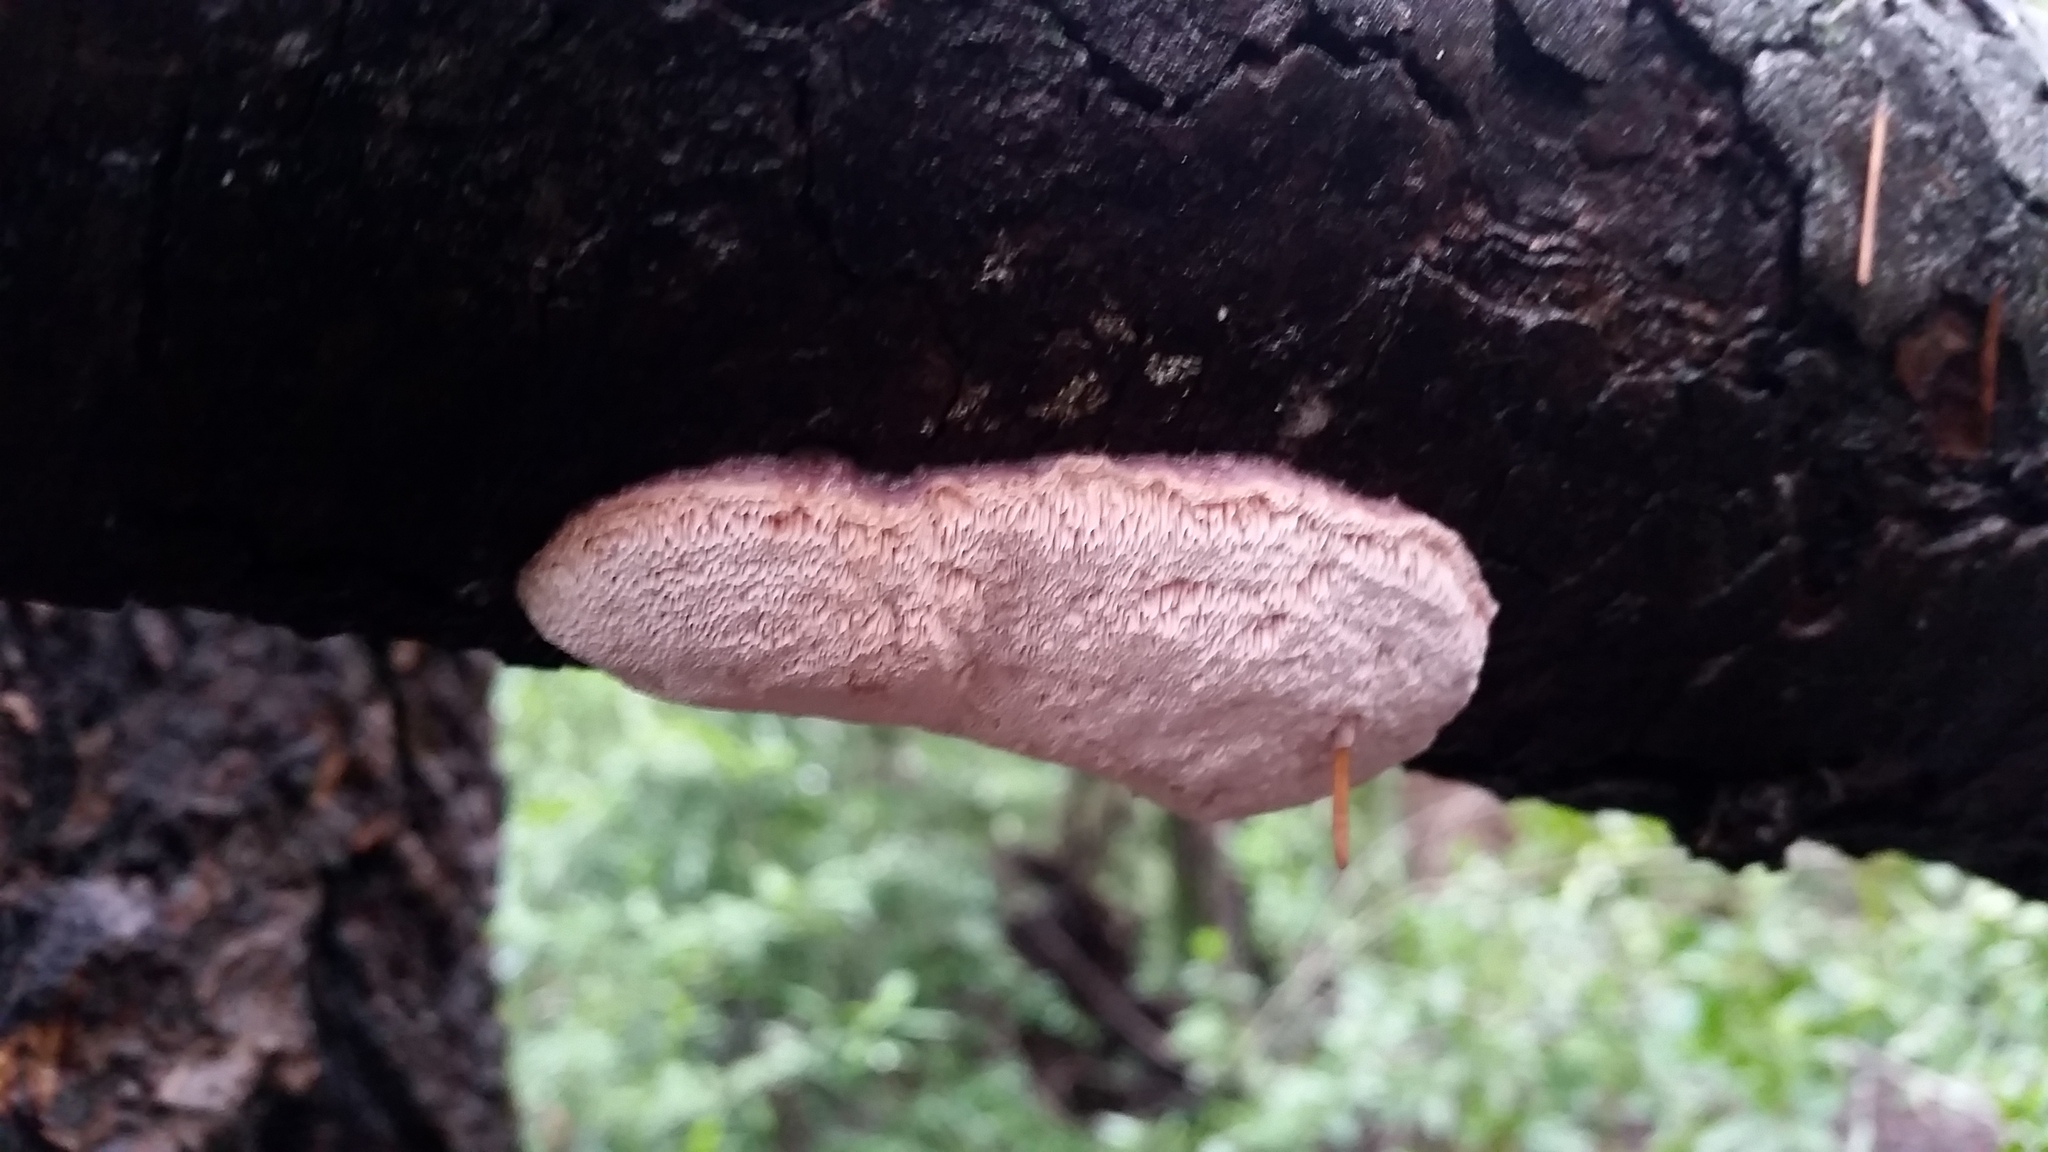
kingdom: Fungi
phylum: Basidiomycota
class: Agaricomycetes
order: Polyporales
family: Irpicaceae
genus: Leptoporus
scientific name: Leptoporus mollis
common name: Soft bracket
